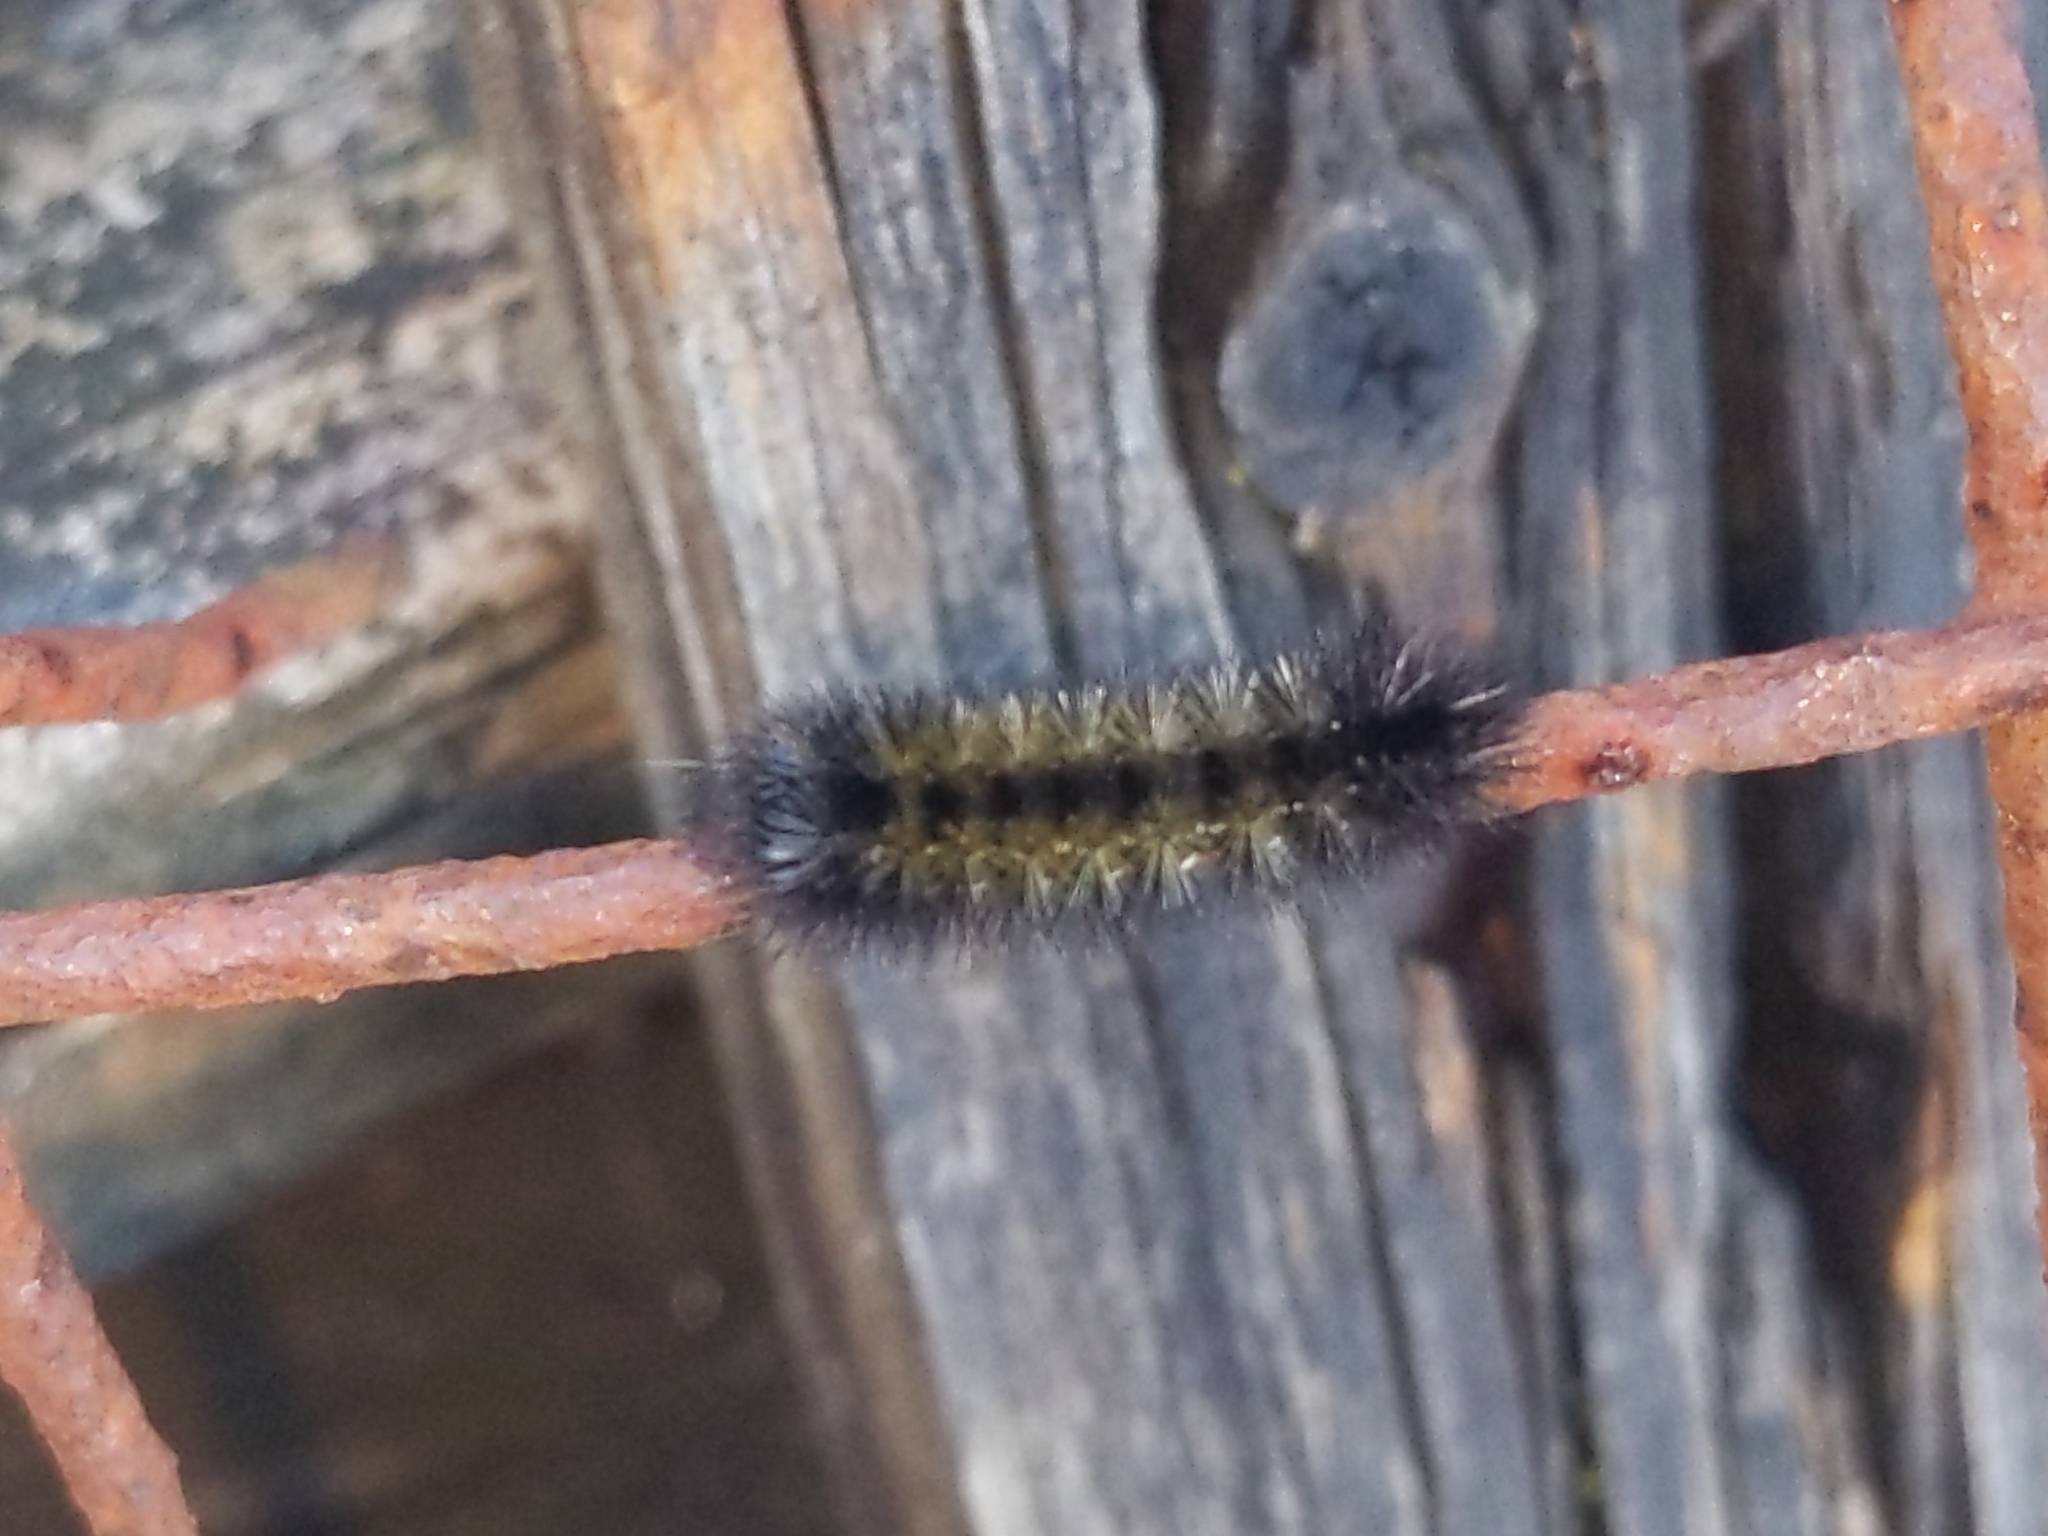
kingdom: Animalia
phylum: Arthropoda
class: Insecta
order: Lepidoptera
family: Erebidae
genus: Ctenucha
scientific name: Ctenucha virginica
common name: Virginia ctenucha moth
